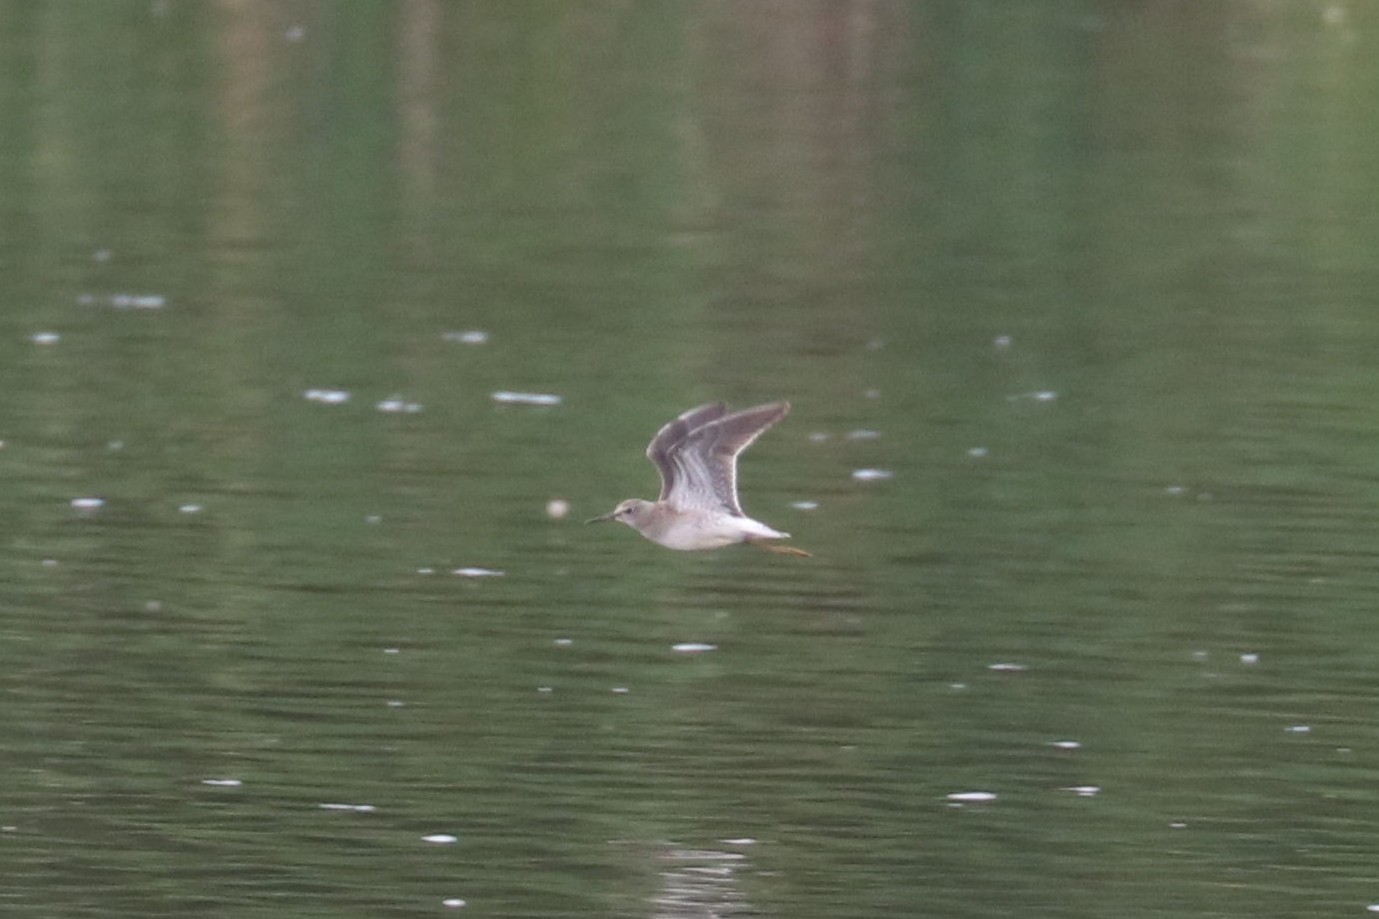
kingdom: Animalia
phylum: Chordata
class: Aves
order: Charadriiformes
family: Scolopacidae
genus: Tringa
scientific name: Tringa glareola
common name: Wood sandpiper
